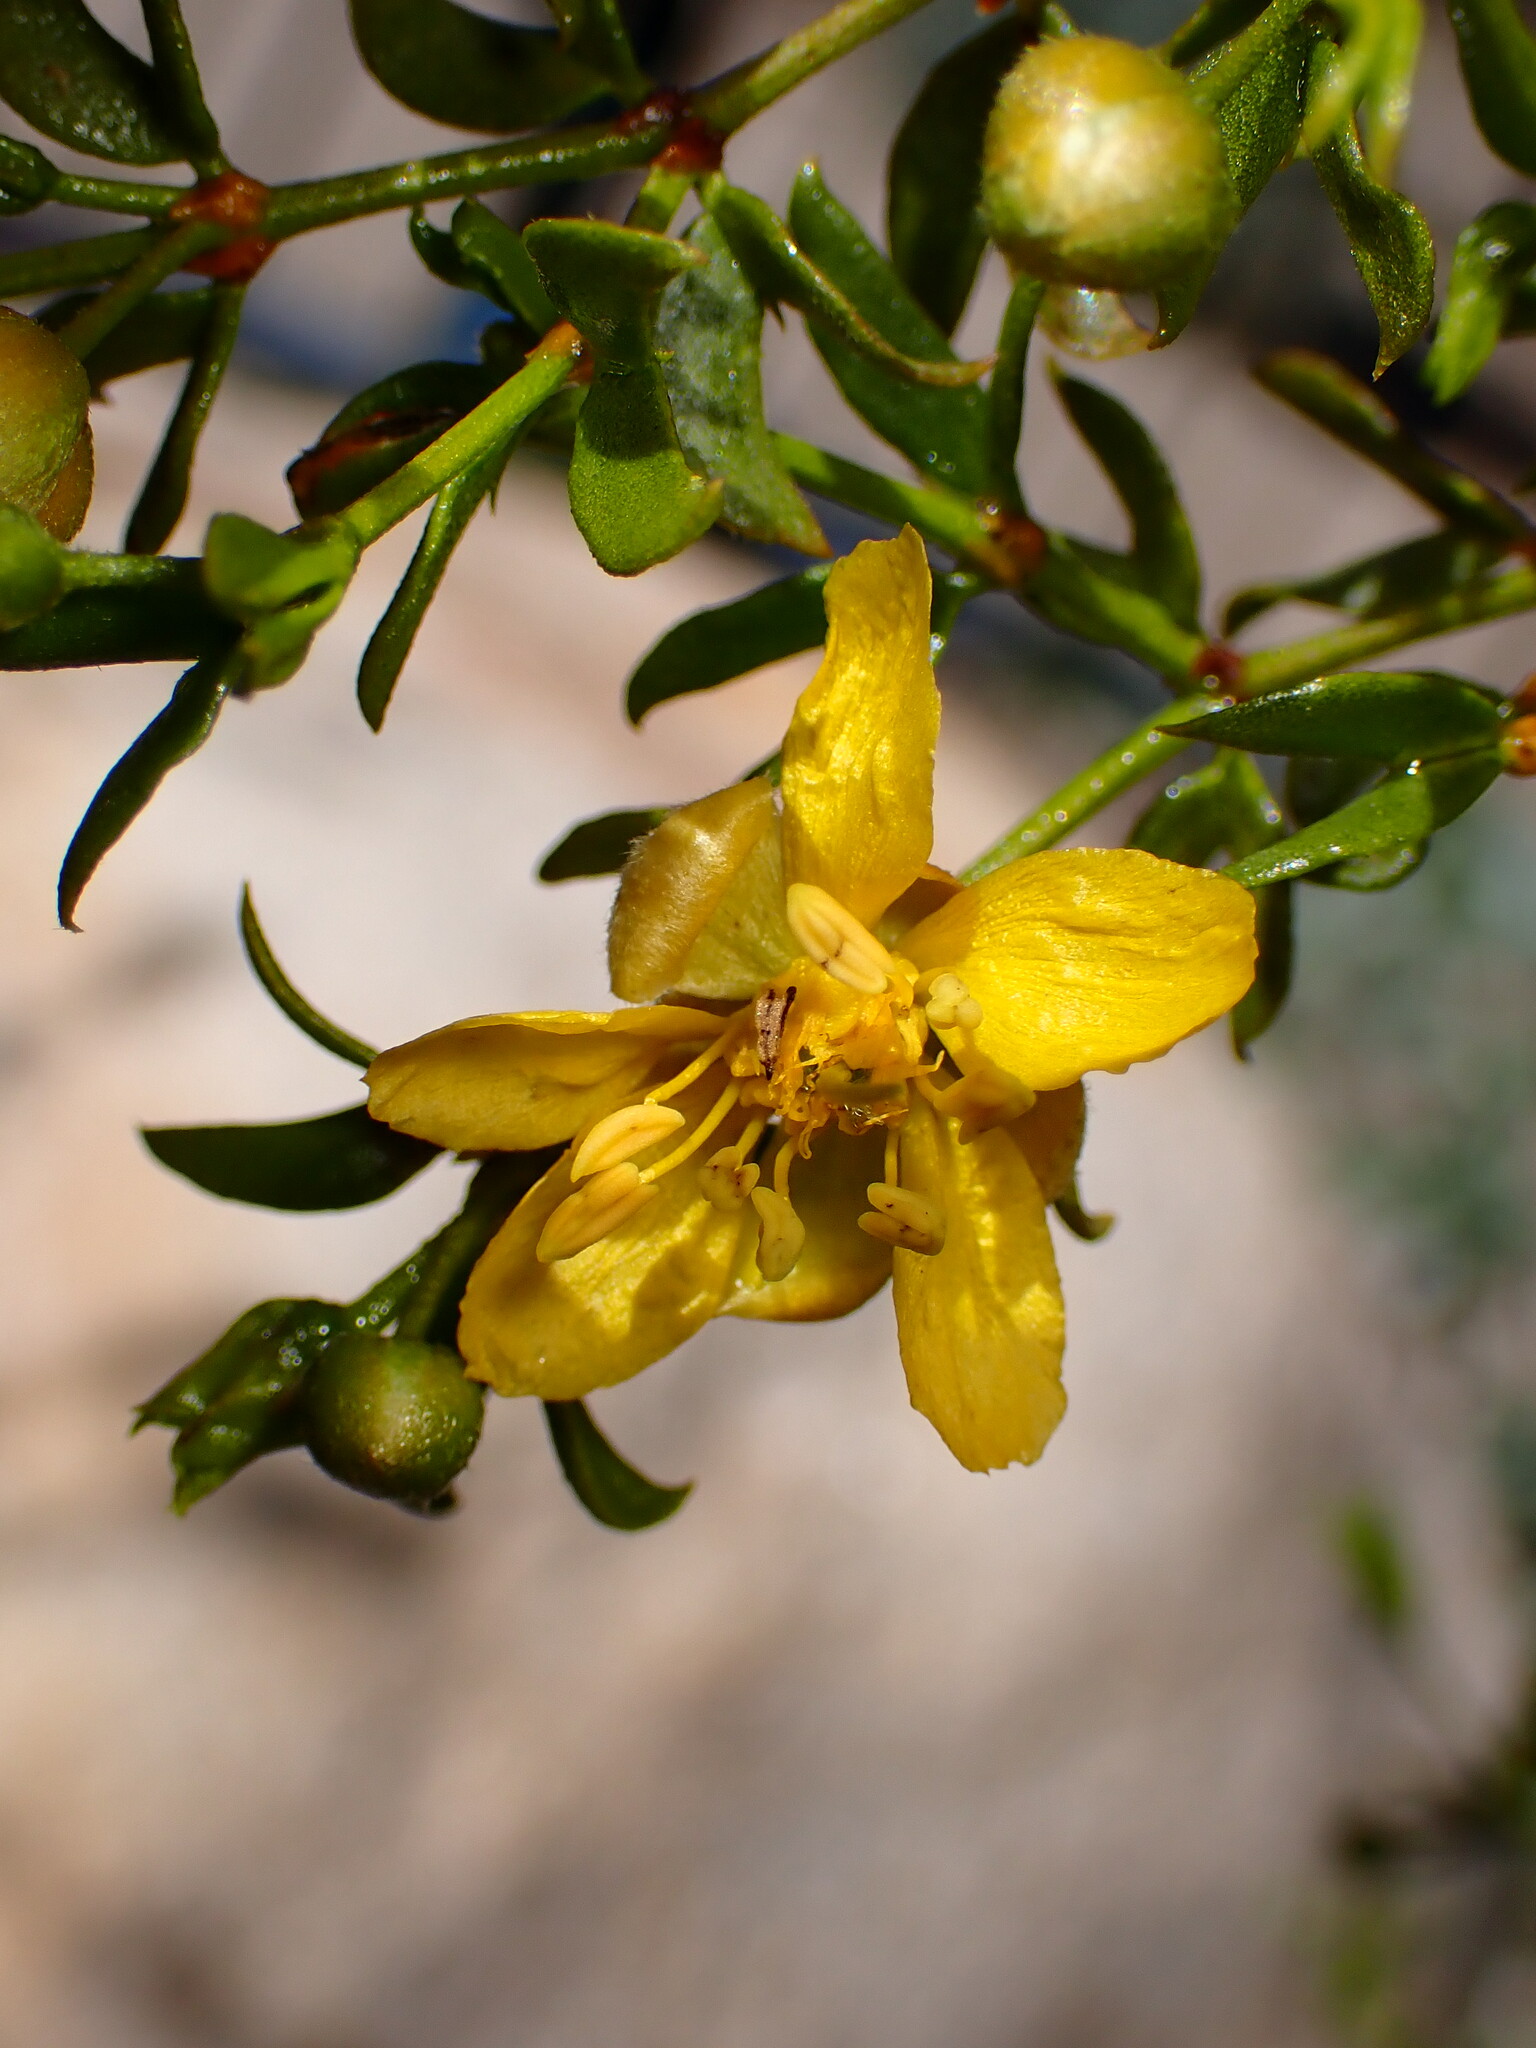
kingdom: Plantae
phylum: Tracheophyta
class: Magnoliopsida
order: Zygophyllales
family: Zygophyllaceae
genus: Larrea
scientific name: Larrea tridentata
